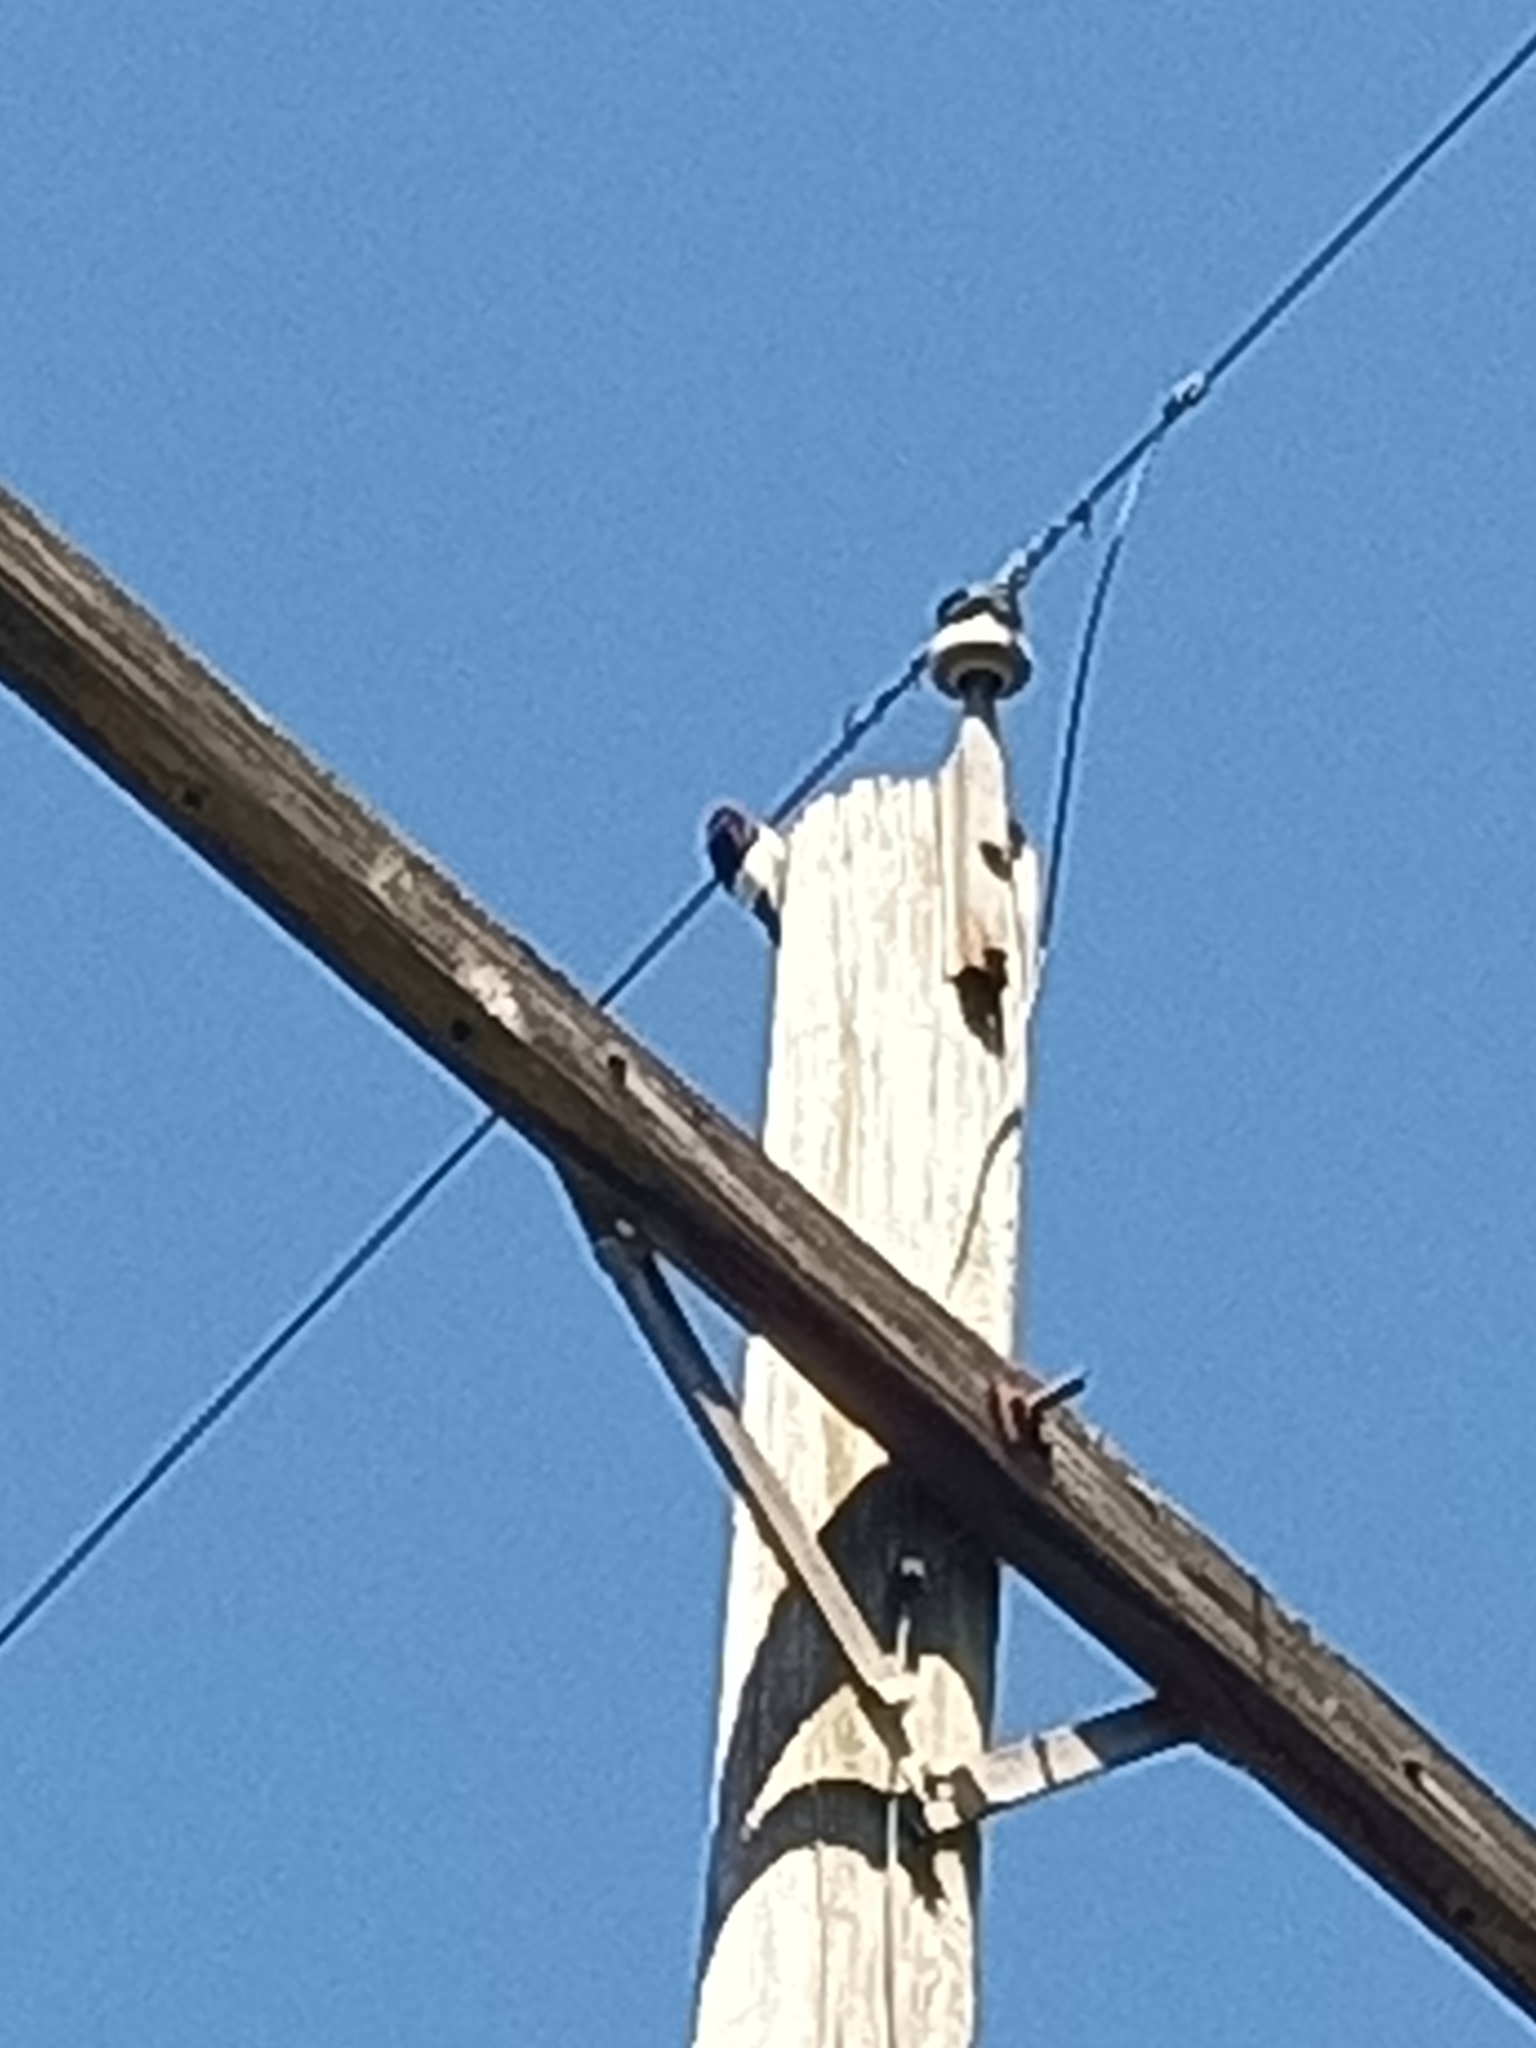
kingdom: Animalia
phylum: Chordata
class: Aves
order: Piciformes
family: Picidae
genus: Melanerpes
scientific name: Melanerpes erythrocephalus
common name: Red-headed woodpecker
